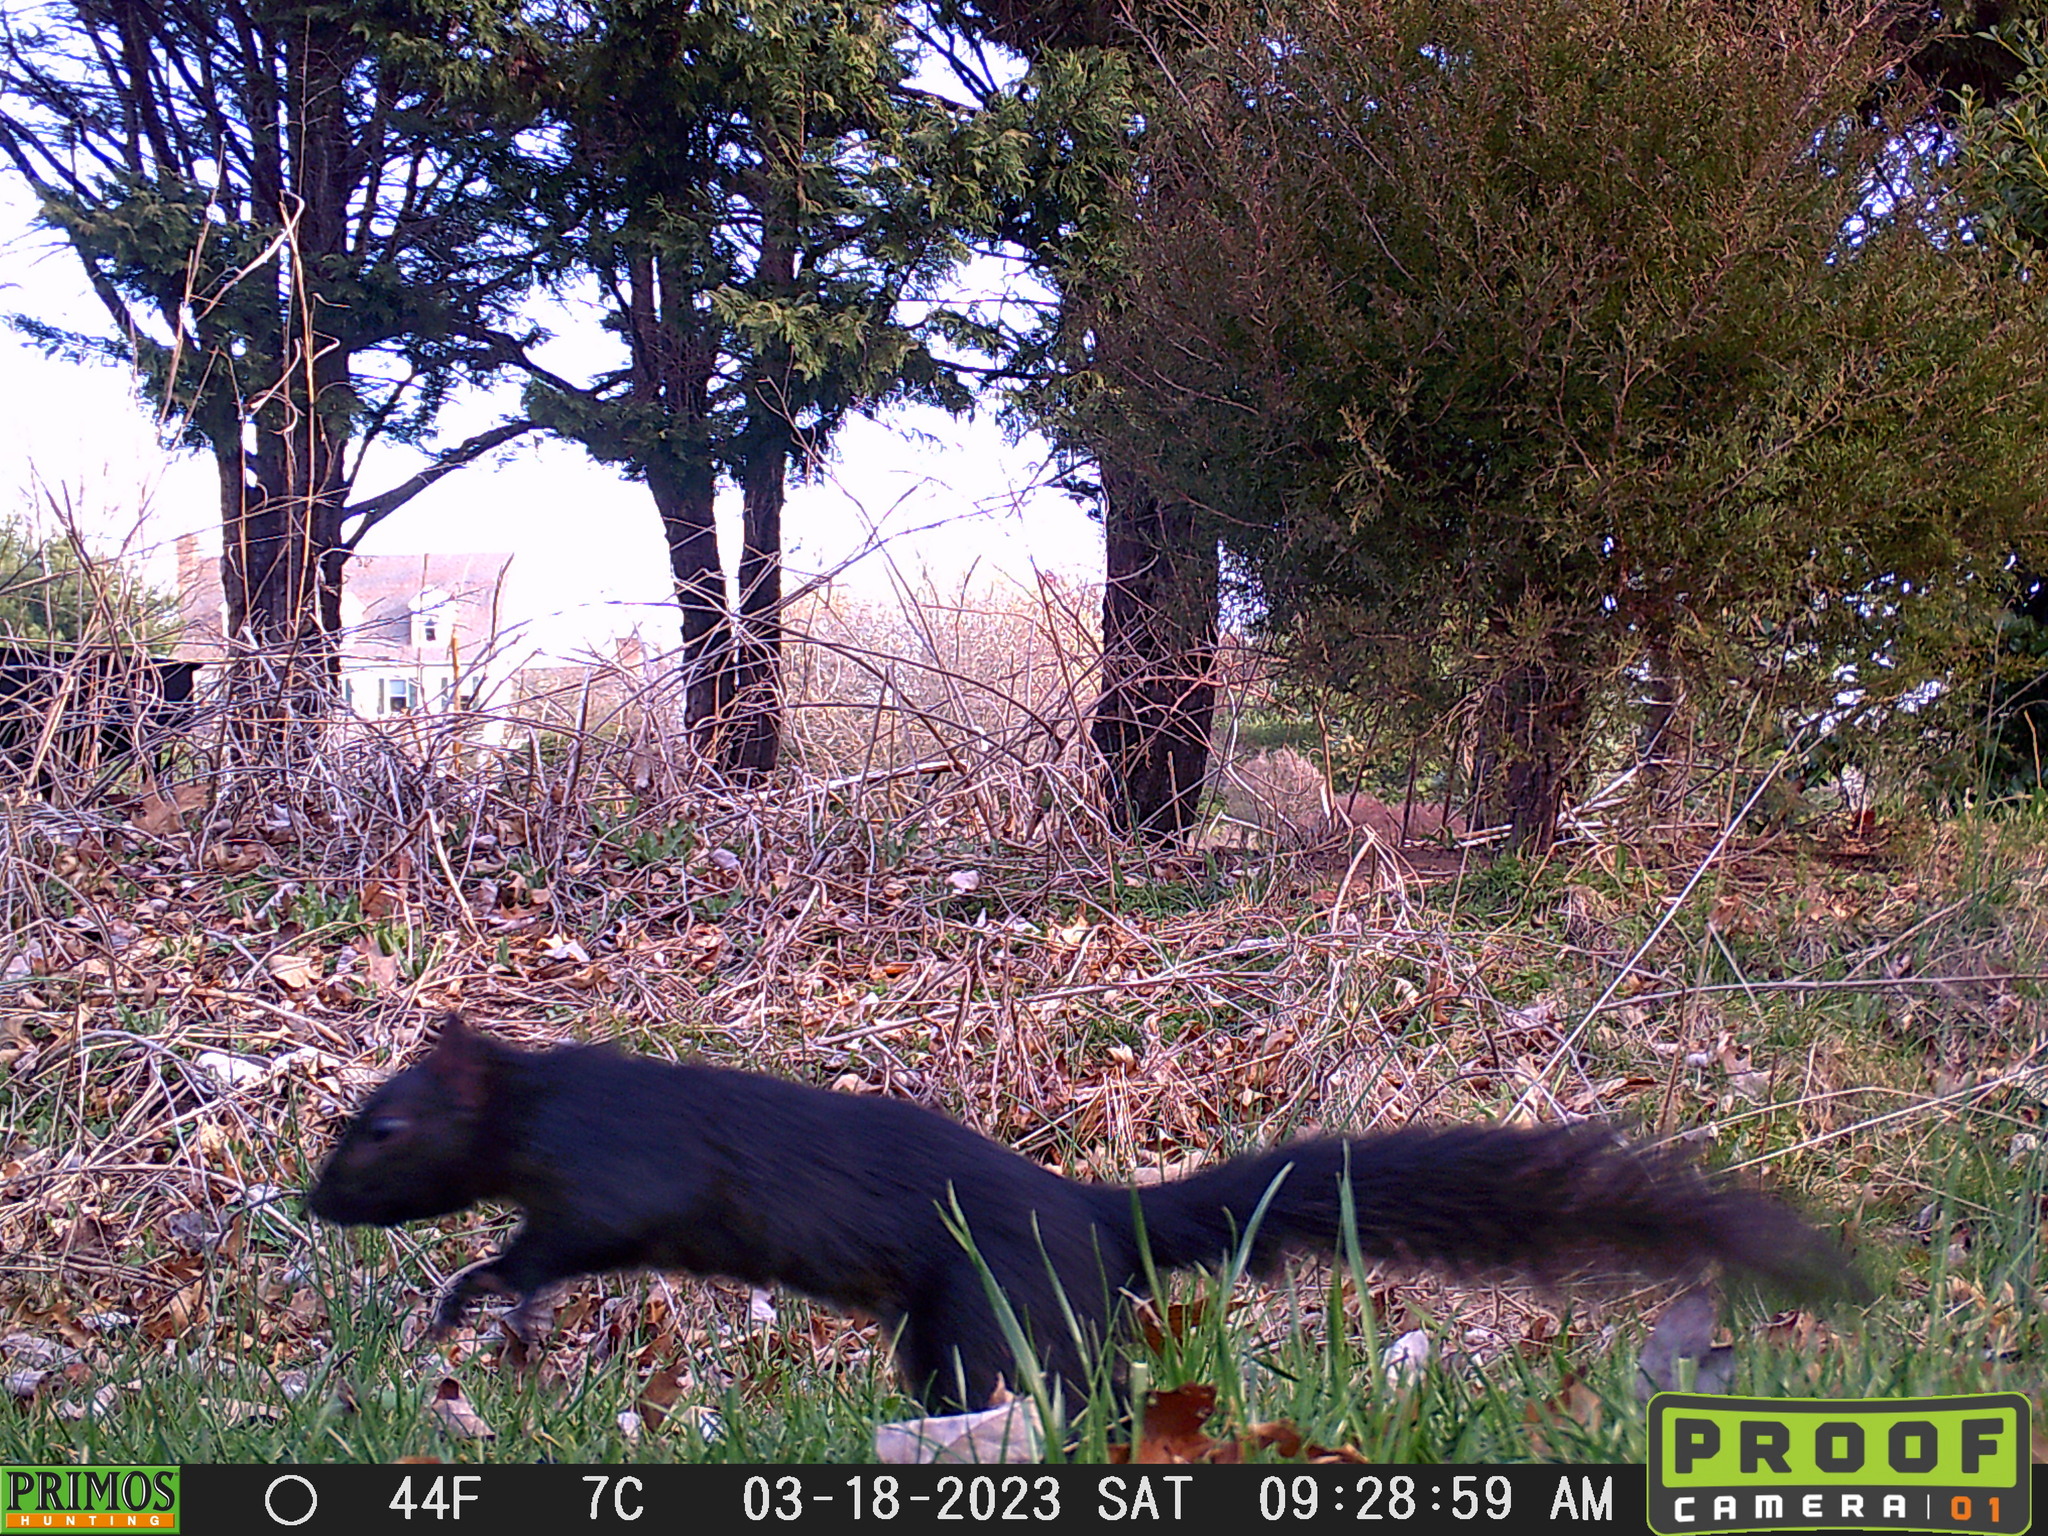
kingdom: Animalia
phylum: Chordata
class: Mammalia
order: Rodentia
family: Sciuridae
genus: Sciurus
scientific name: Sciurus carolinensis
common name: Eastern gray squirrel
